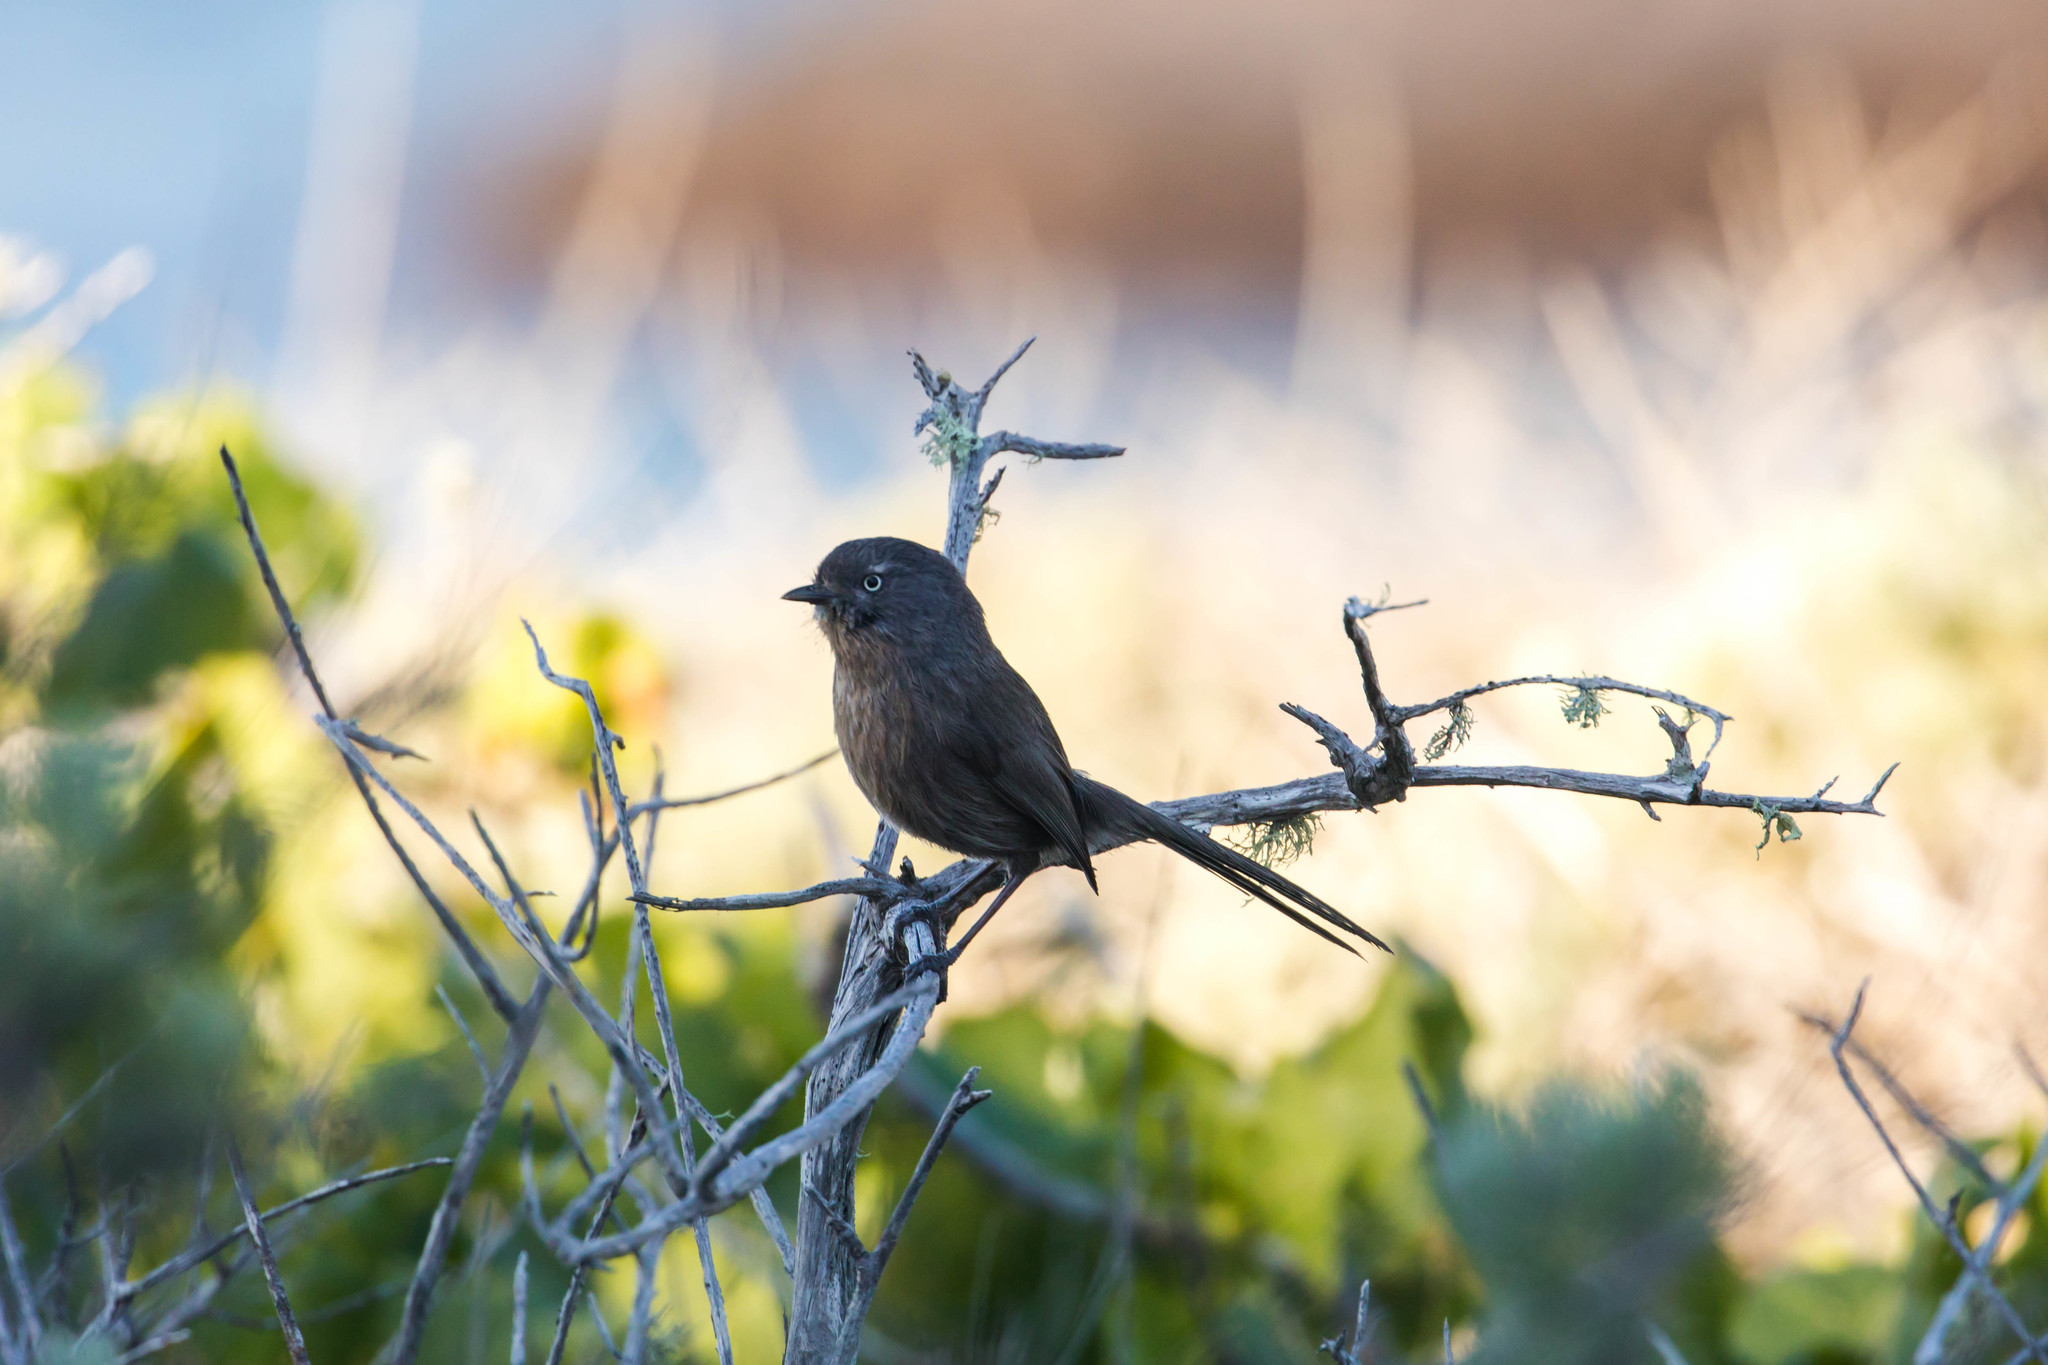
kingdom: Animalia
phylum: Chordata
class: Aves
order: Passeriformes
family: Sylviidae
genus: Chamaea
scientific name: Chamaea fasciata
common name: Wrentit
